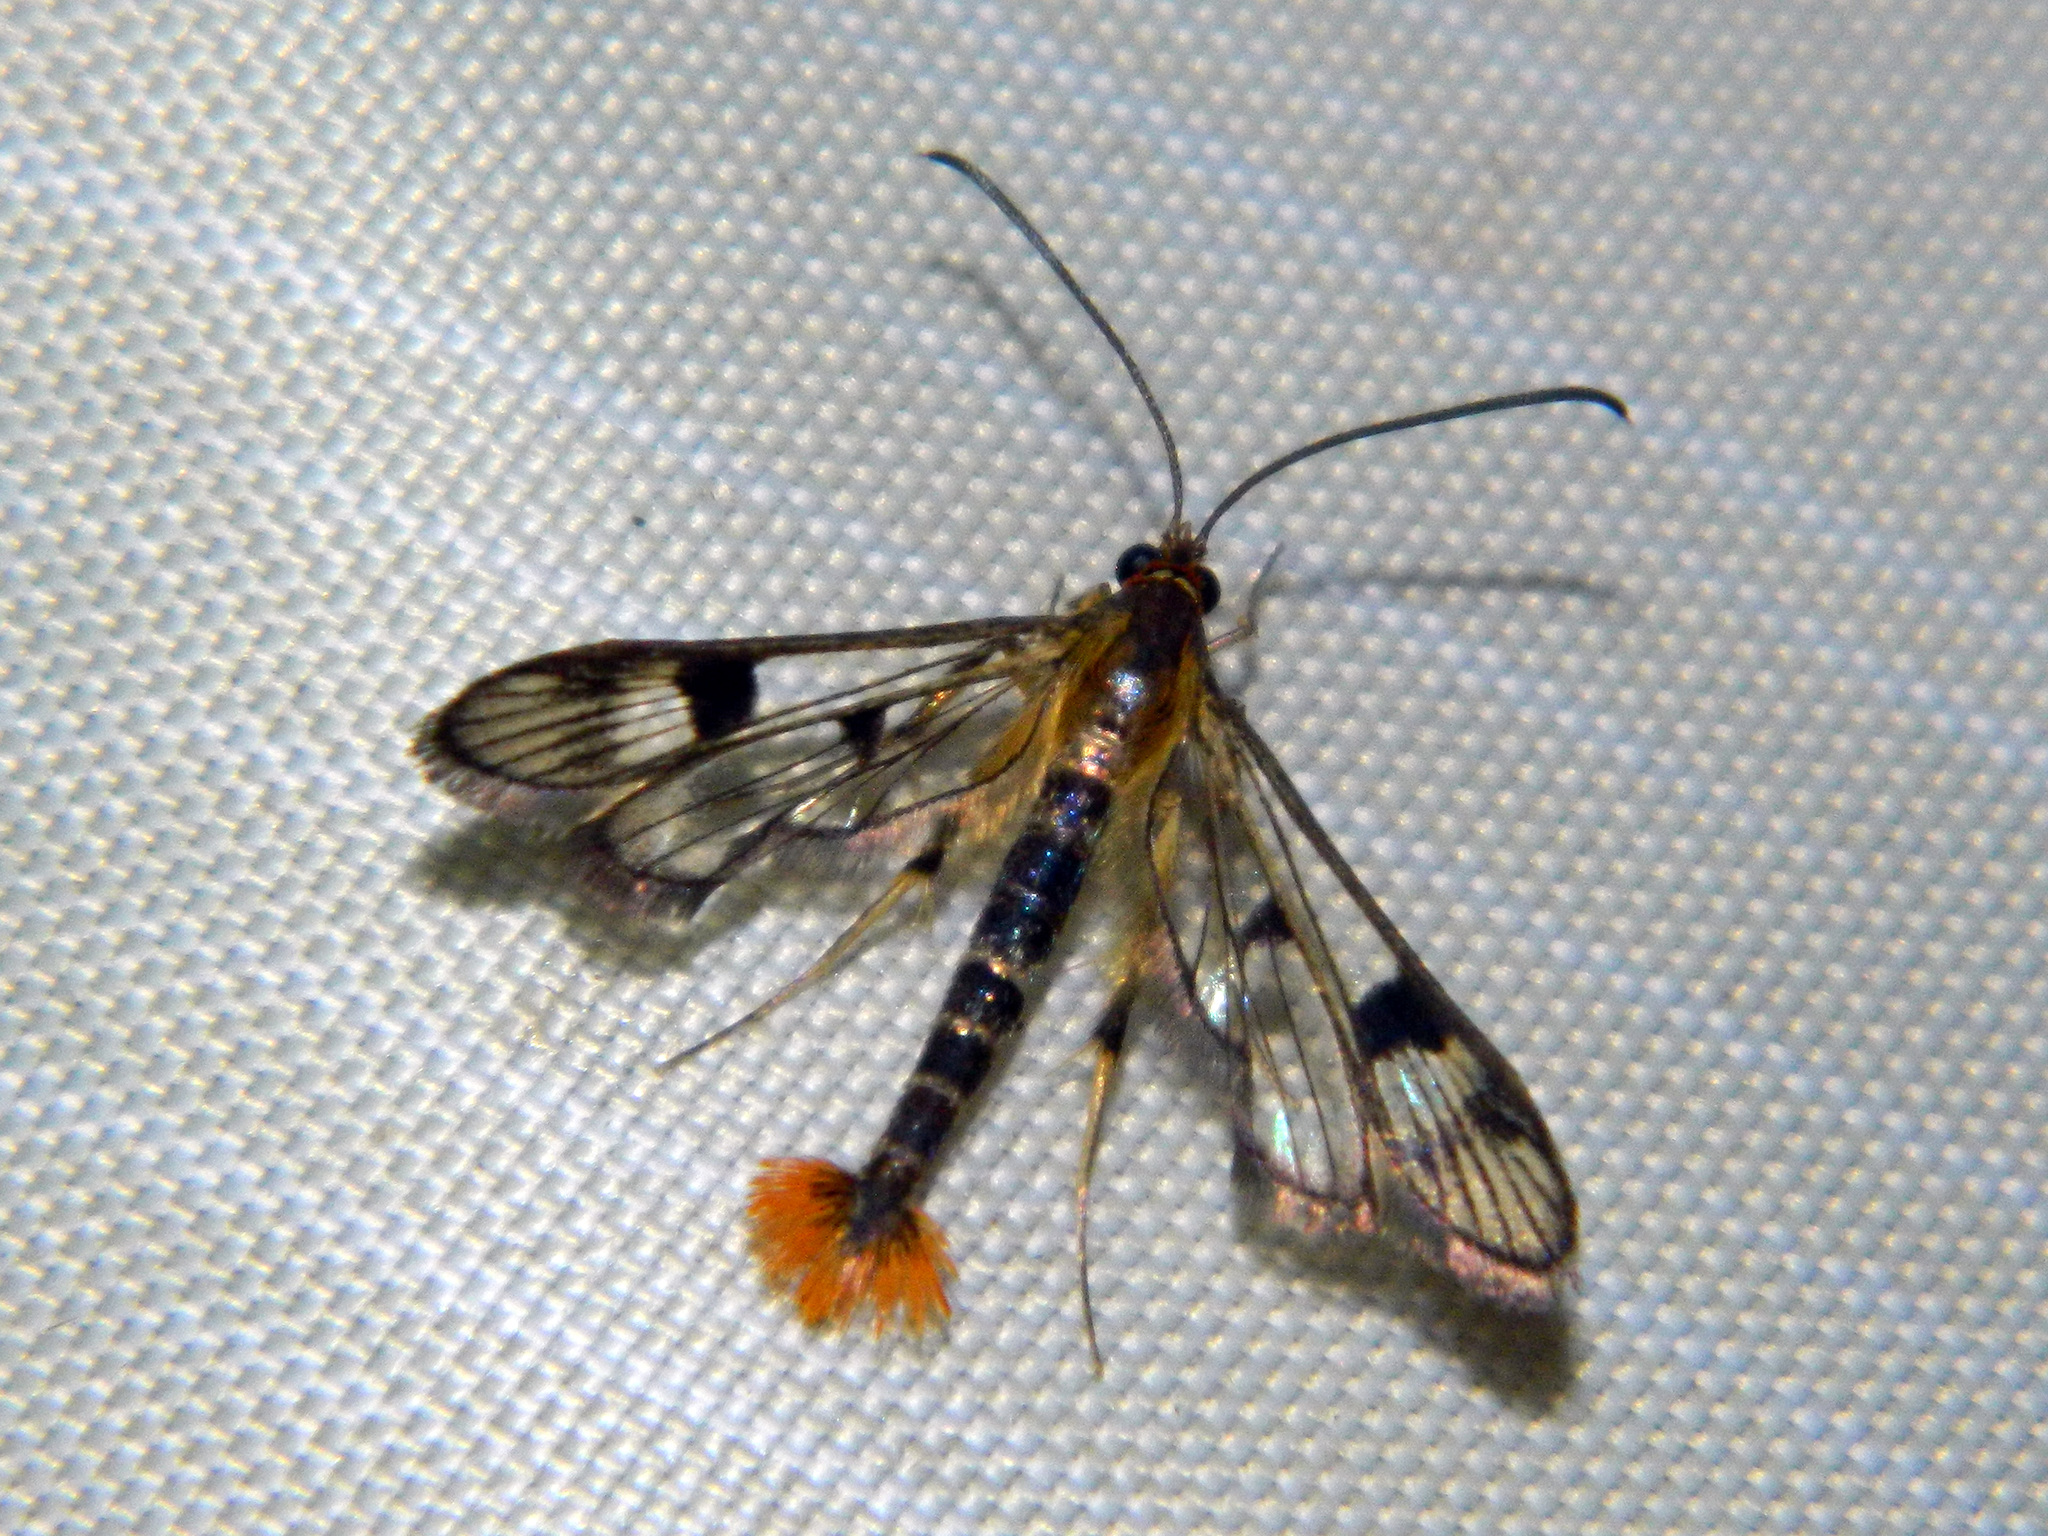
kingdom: Animalia
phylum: Arthropoda
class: Insecta
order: Lepidoptera
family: Sesiidae
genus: Synanthedon
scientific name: Synanthedon acerni
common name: Maple callus borer moth
